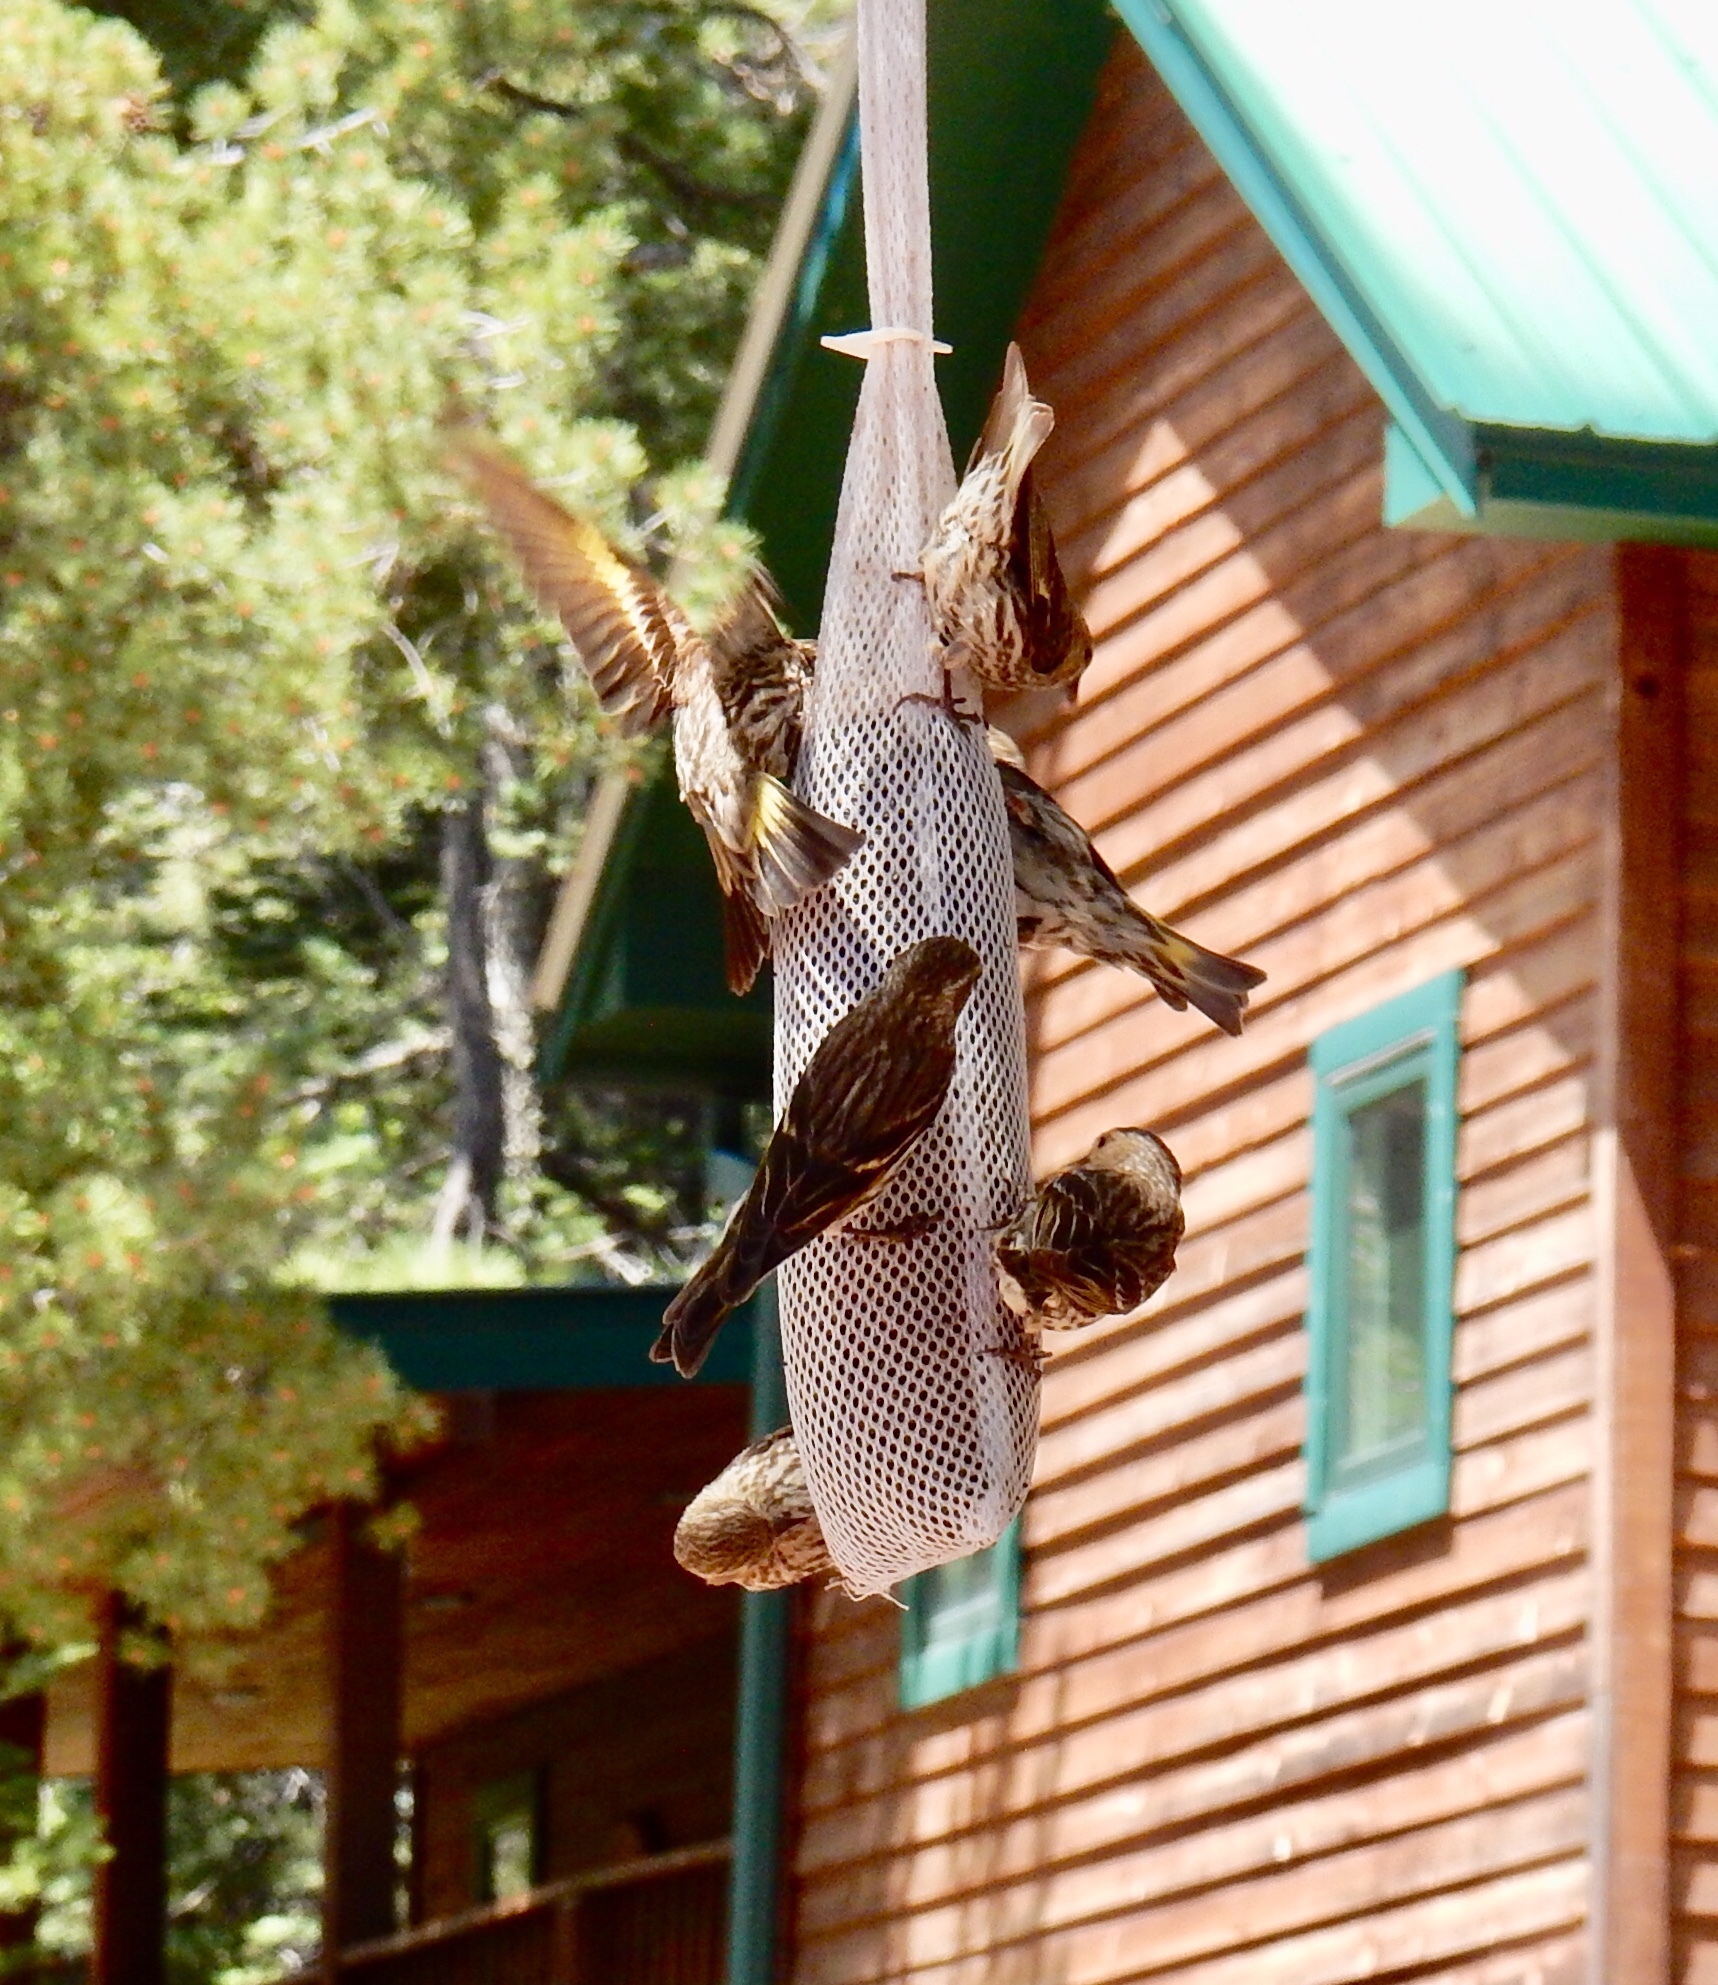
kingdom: Animalia
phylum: Chordata
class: Aves
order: Passeriformes
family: Fringillidae
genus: Spinus
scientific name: Spinus pinus
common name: Pine siskin
